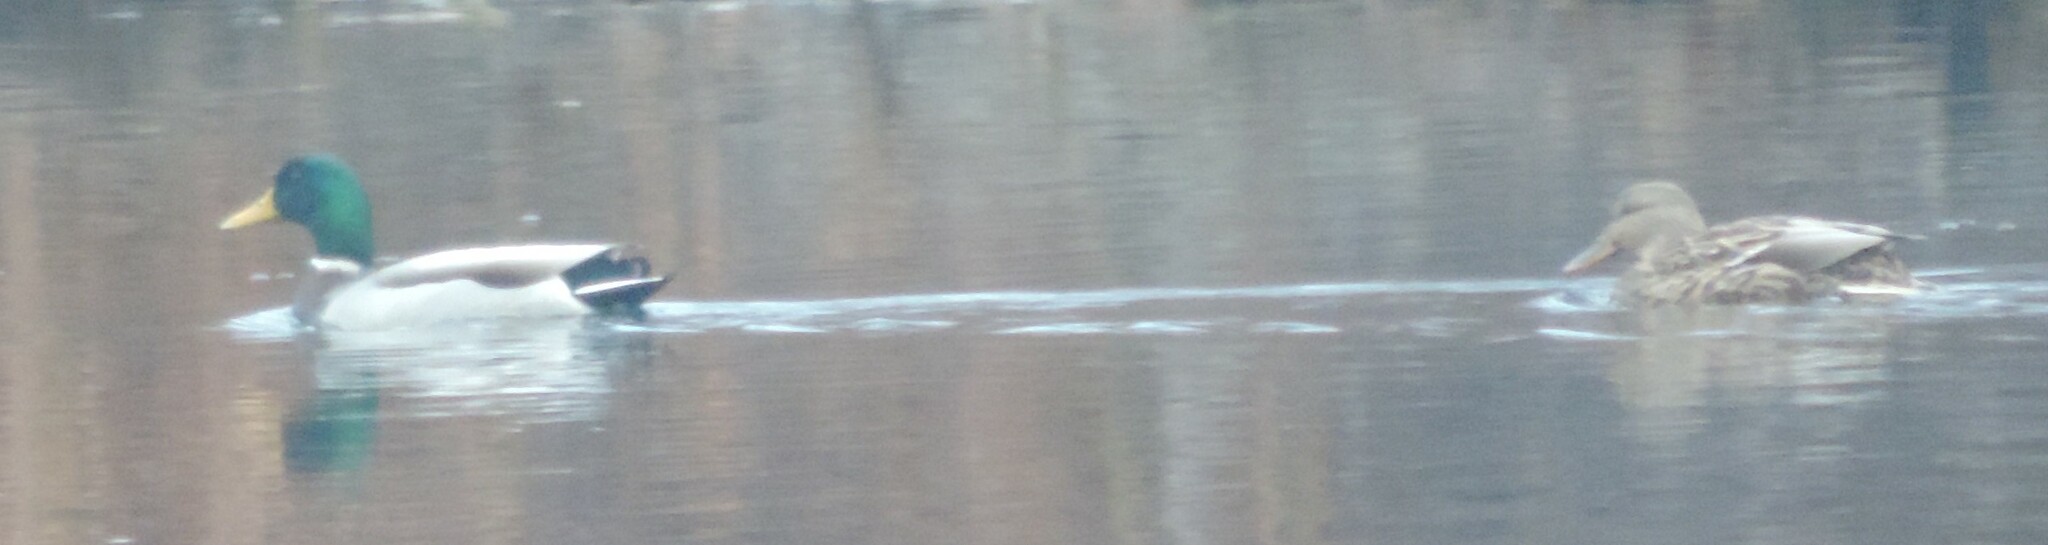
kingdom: Animalia
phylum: Chordata
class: Aves
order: Anseriformes
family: Anatidae
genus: Anas
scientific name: Anas platyrhynchos
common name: Mallard
